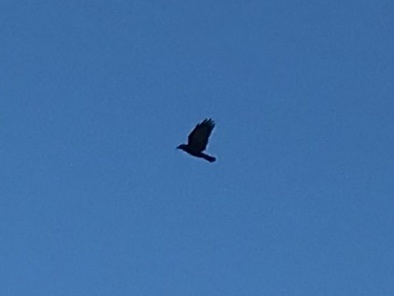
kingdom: Animalia
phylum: Chordata
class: Aves
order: Passeriformes
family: Corvidae
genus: Corvus
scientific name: Corvus brachyrhynchos
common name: American crow
